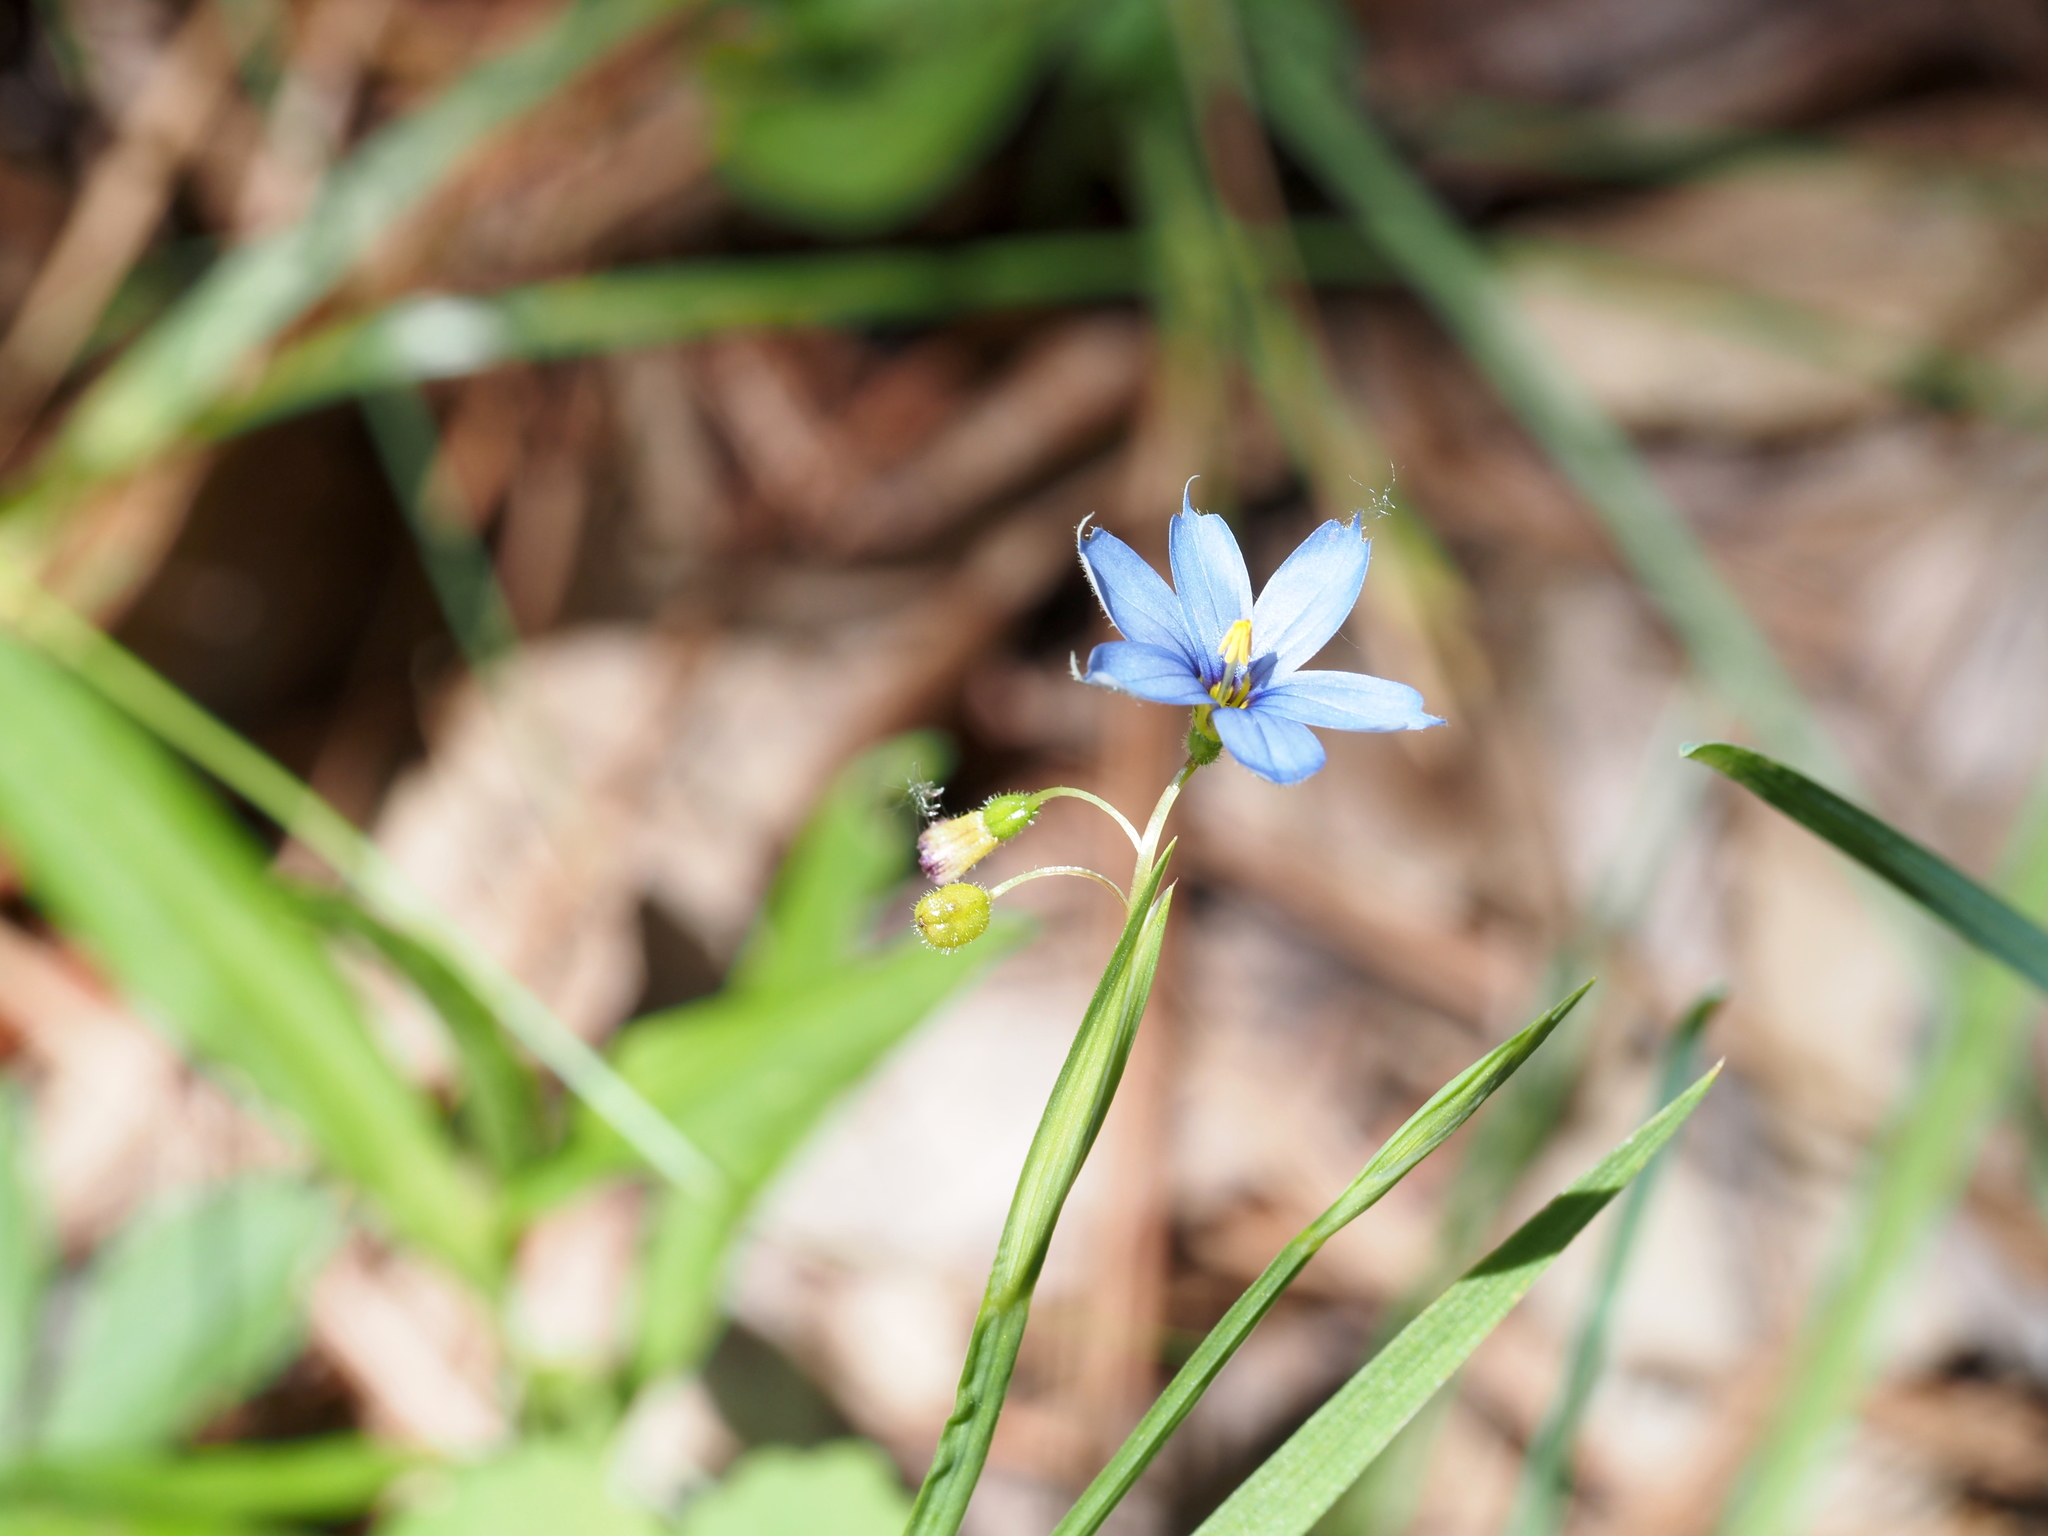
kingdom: Plantae
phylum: Tracheophyta
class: Liliopsida
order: Asparagales
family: Iridaceae
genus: Sisyrinchium
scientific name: Sisyrinchium angustifolium
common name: Narrow-leaf blue-eyed-grass
